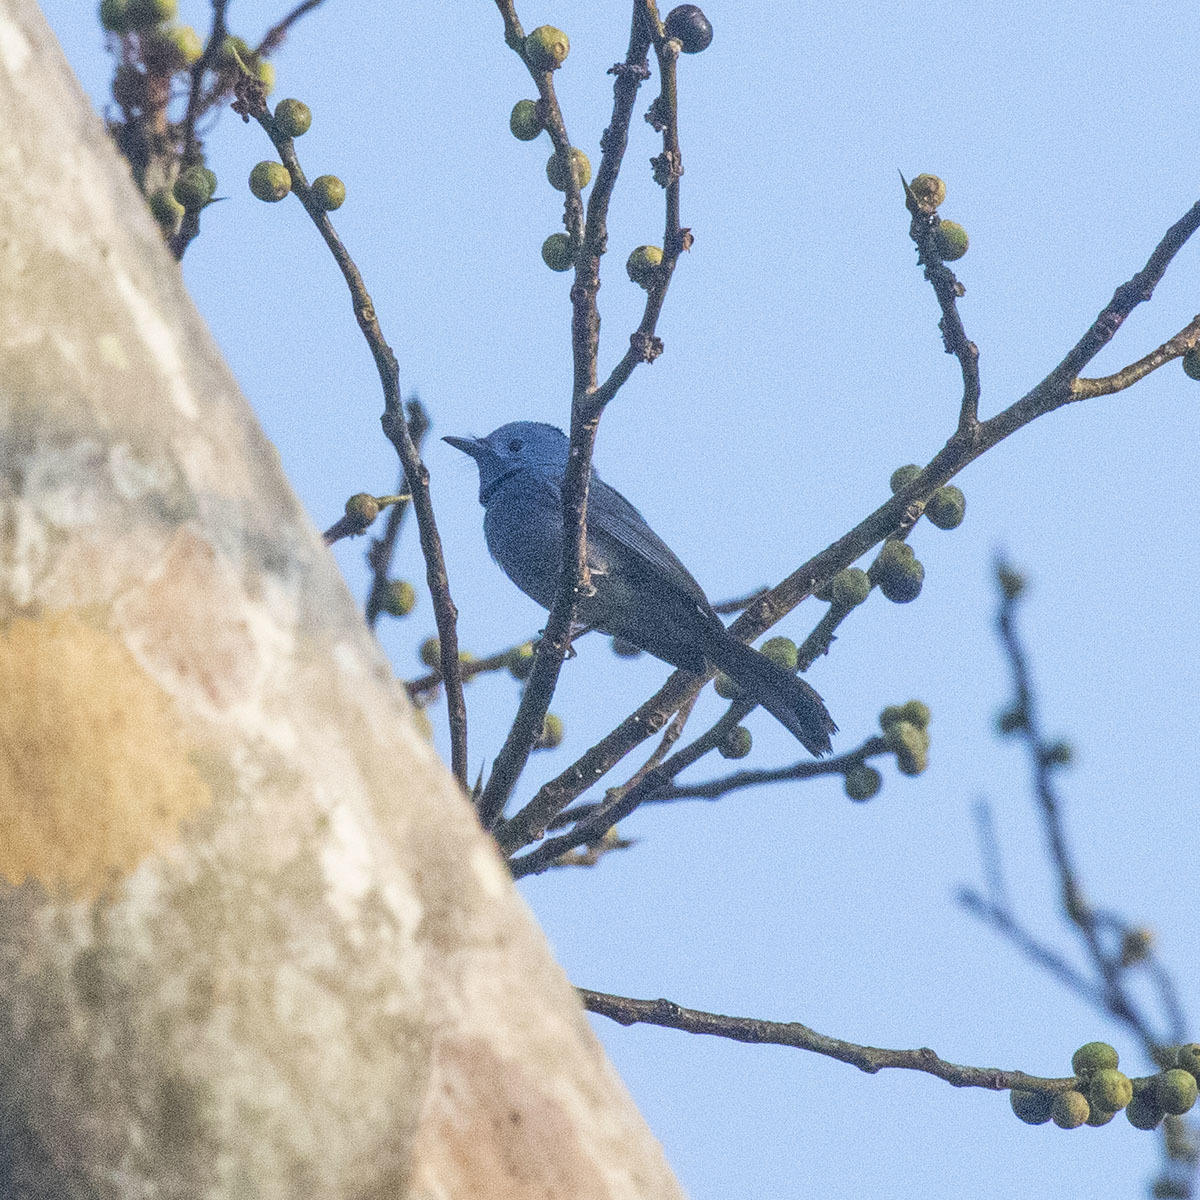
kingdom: Animalia
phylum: Chordata
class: Aves
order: Passeriformes
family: Monarchidae
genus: Hypothymis
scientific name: Hypothymis azurea
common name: Black-naped monarch
